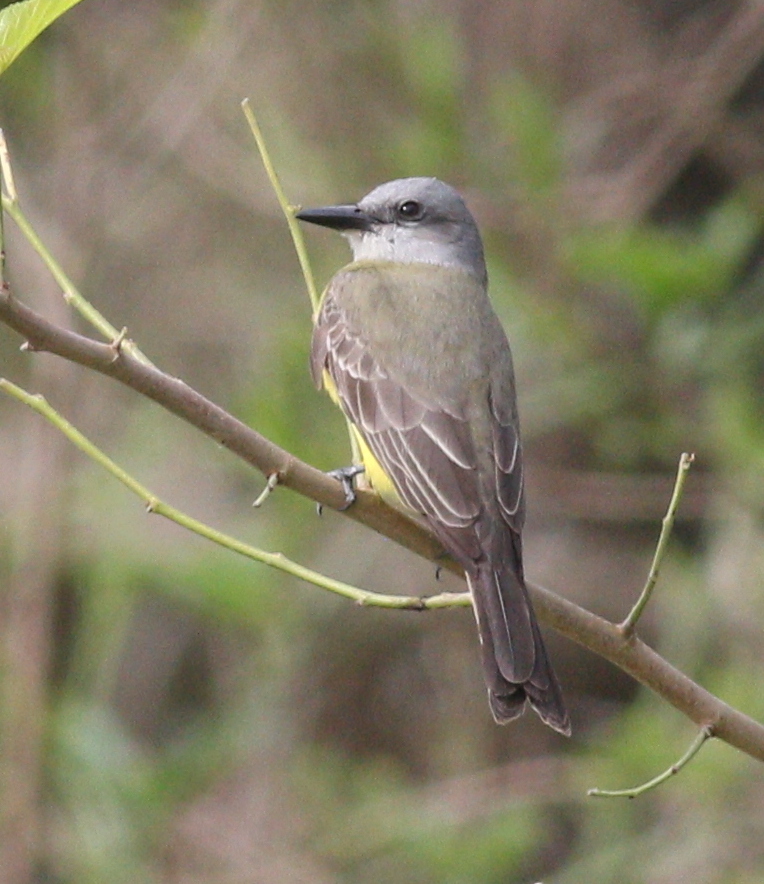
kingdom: Animalia
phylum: Chordata
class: Aves
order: Passeriformes
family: Tyrannidae
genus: Tyrannus
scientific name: Tyrannus melancholicus
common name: Tropical kingbird
